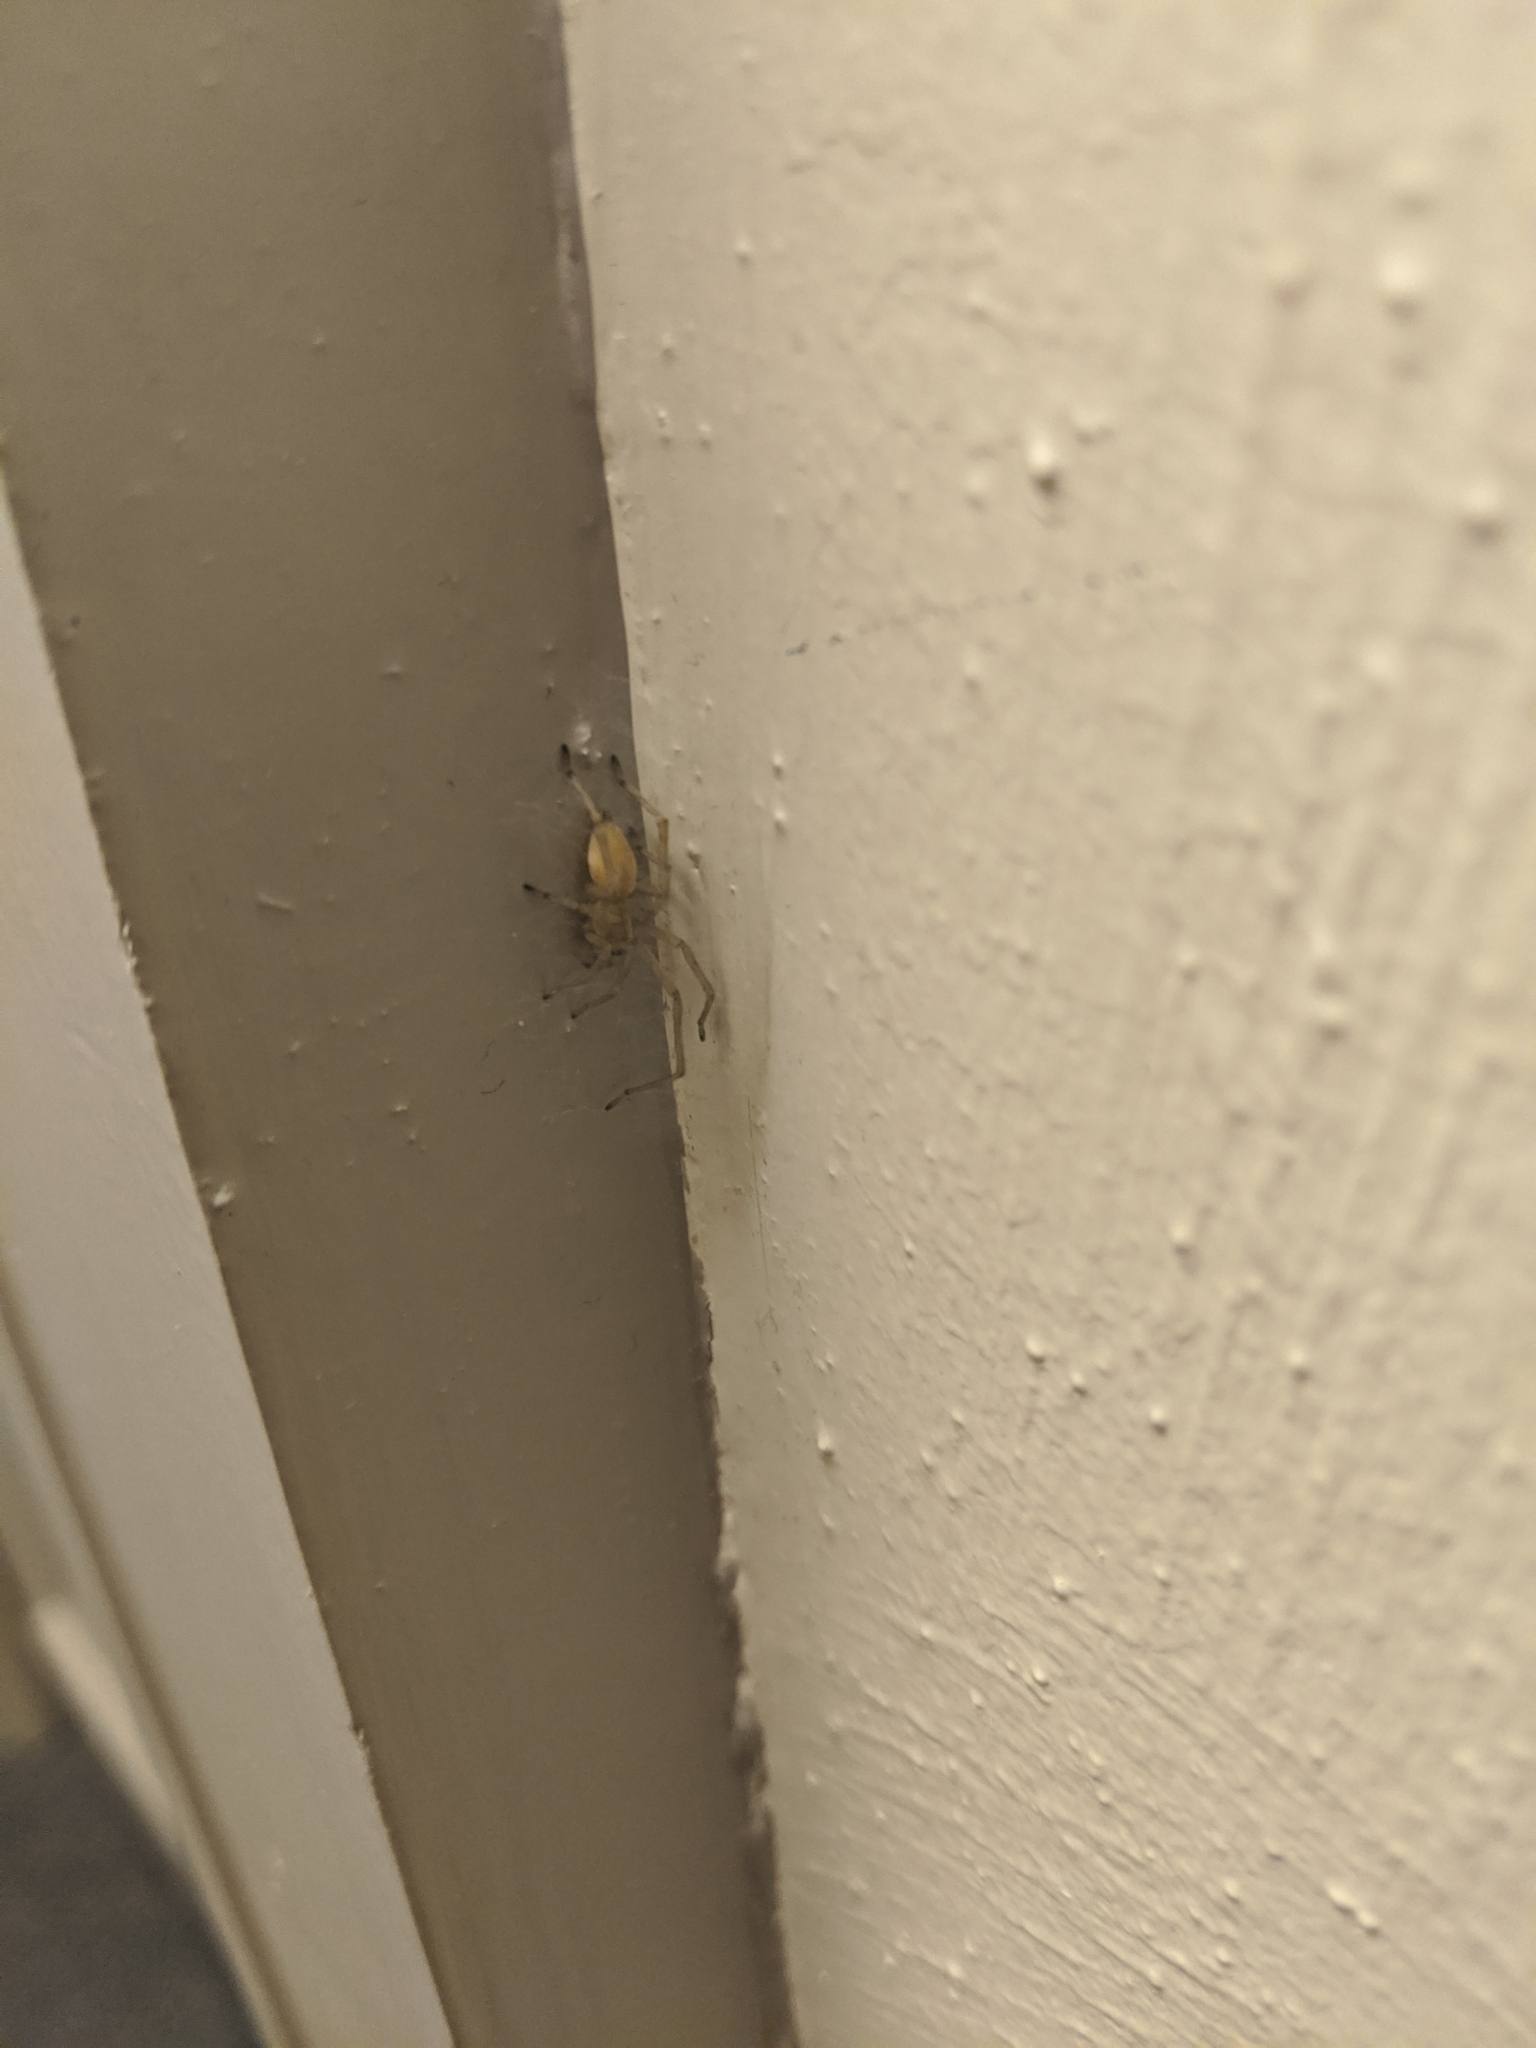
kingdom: Animalia
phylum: Arthropoda
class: Arachnida
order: Araneae
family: Cheiracanthiidae
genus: Cheiracanthium
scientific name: Cheiracanthium mildei
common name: Northern yellow sac spider
